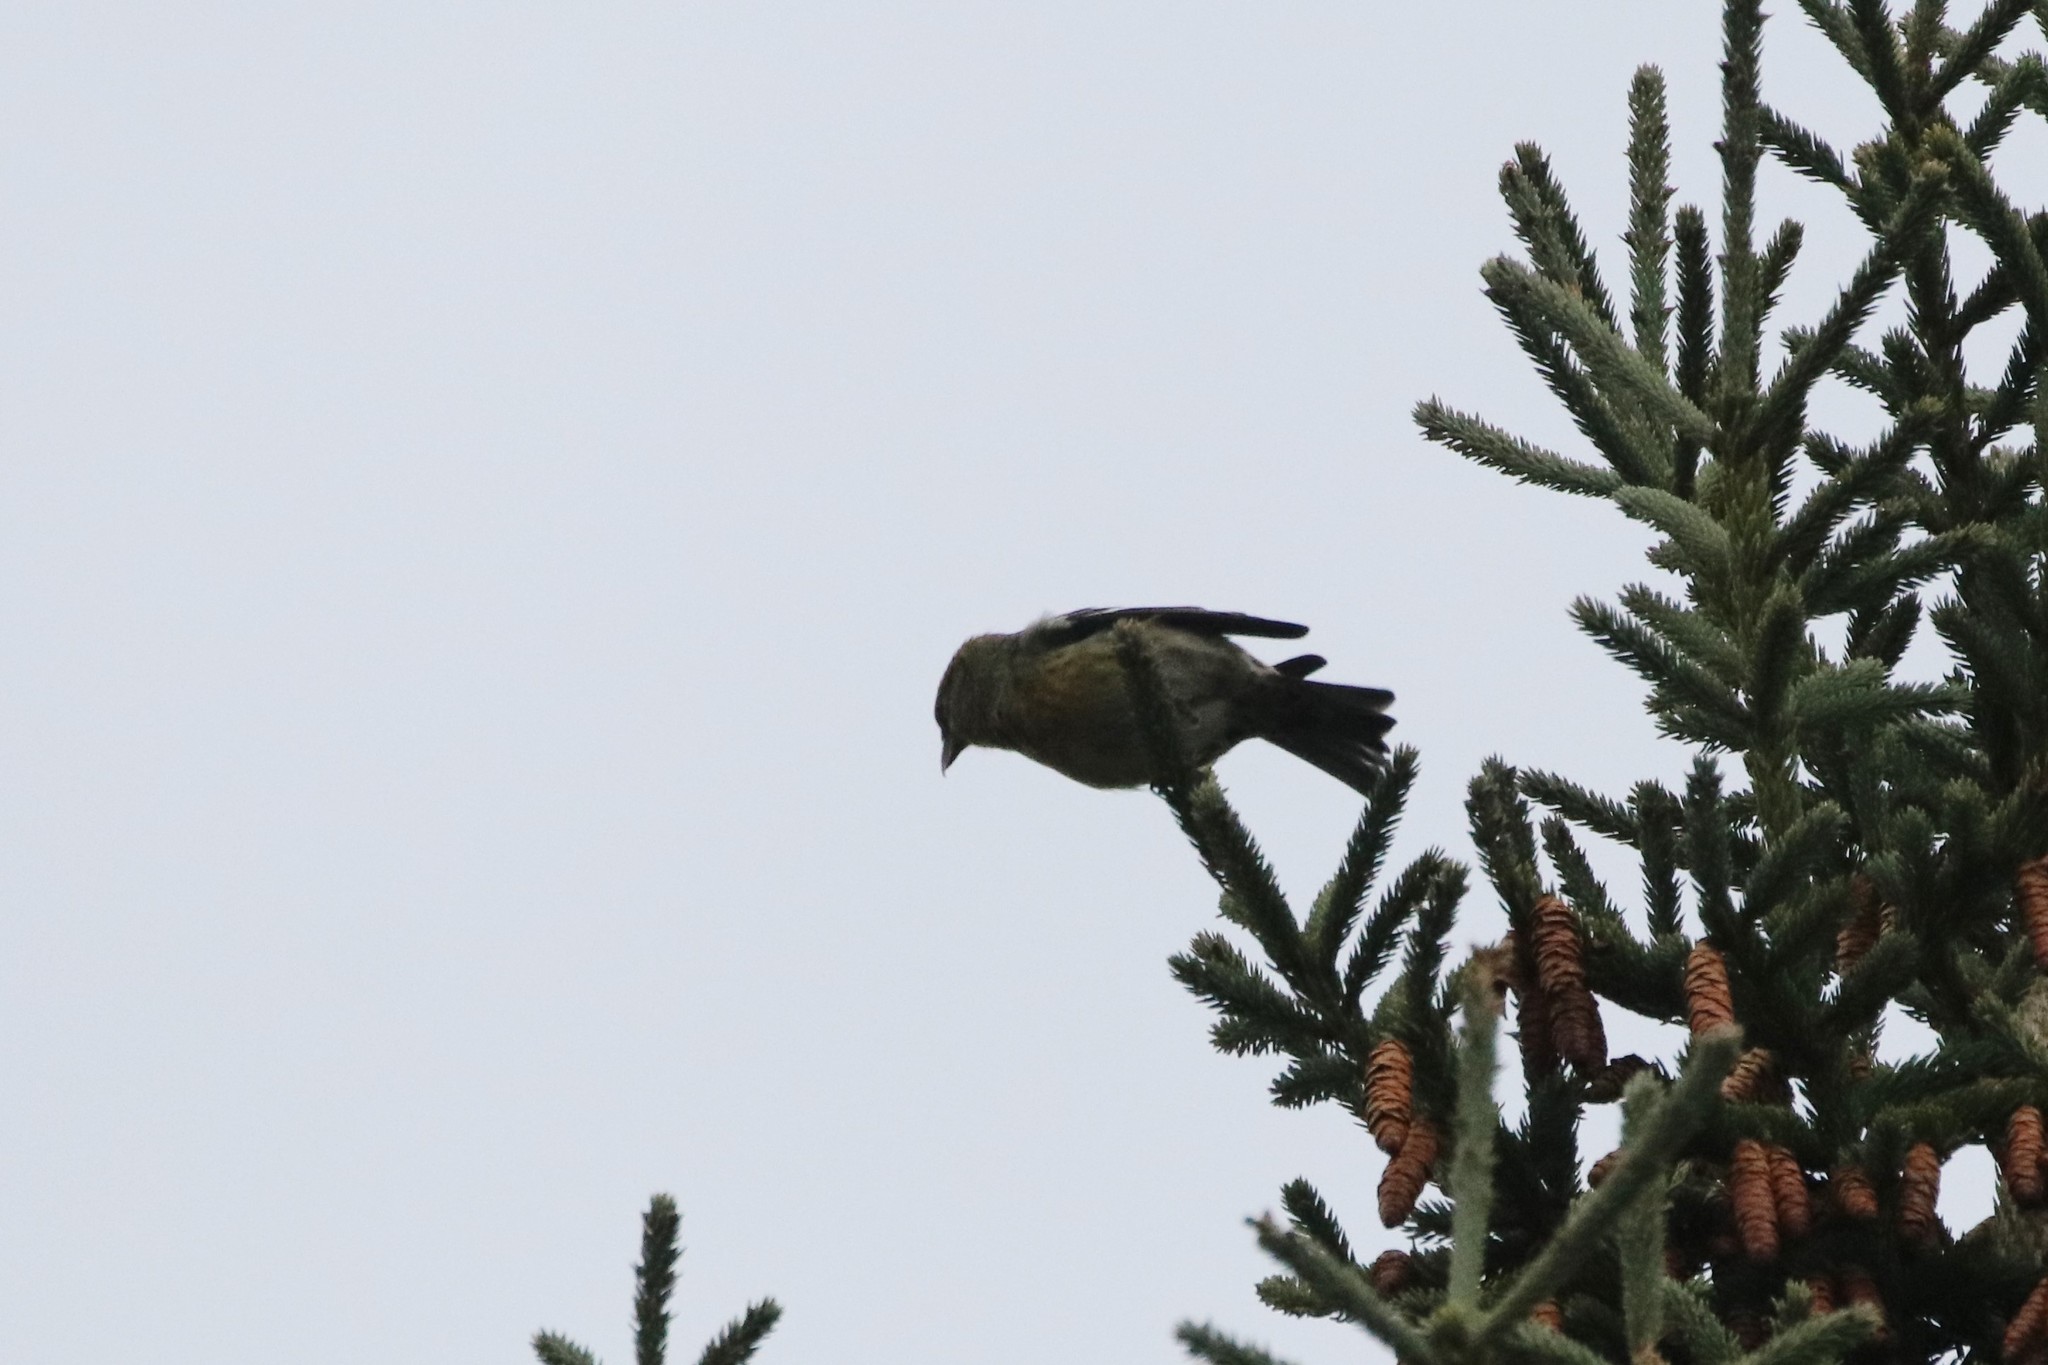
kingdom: Animalia
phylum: Chordata
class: Aves
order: Passeriformes
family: Fringillidae
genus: Loxia
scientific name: Loxia leucoptera
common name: Two-barred crossbill
